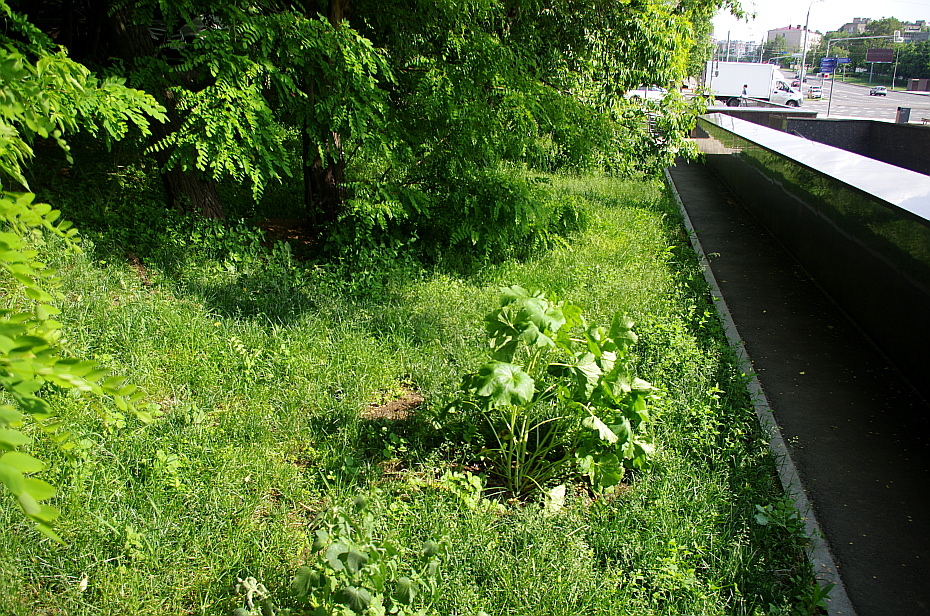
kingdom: Plantae
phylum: Tracheophyta
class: Magnoliopsida
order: Malvales
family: Malvaceae
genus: Alcea
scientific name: Alcea rosea
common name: Hollyhock
